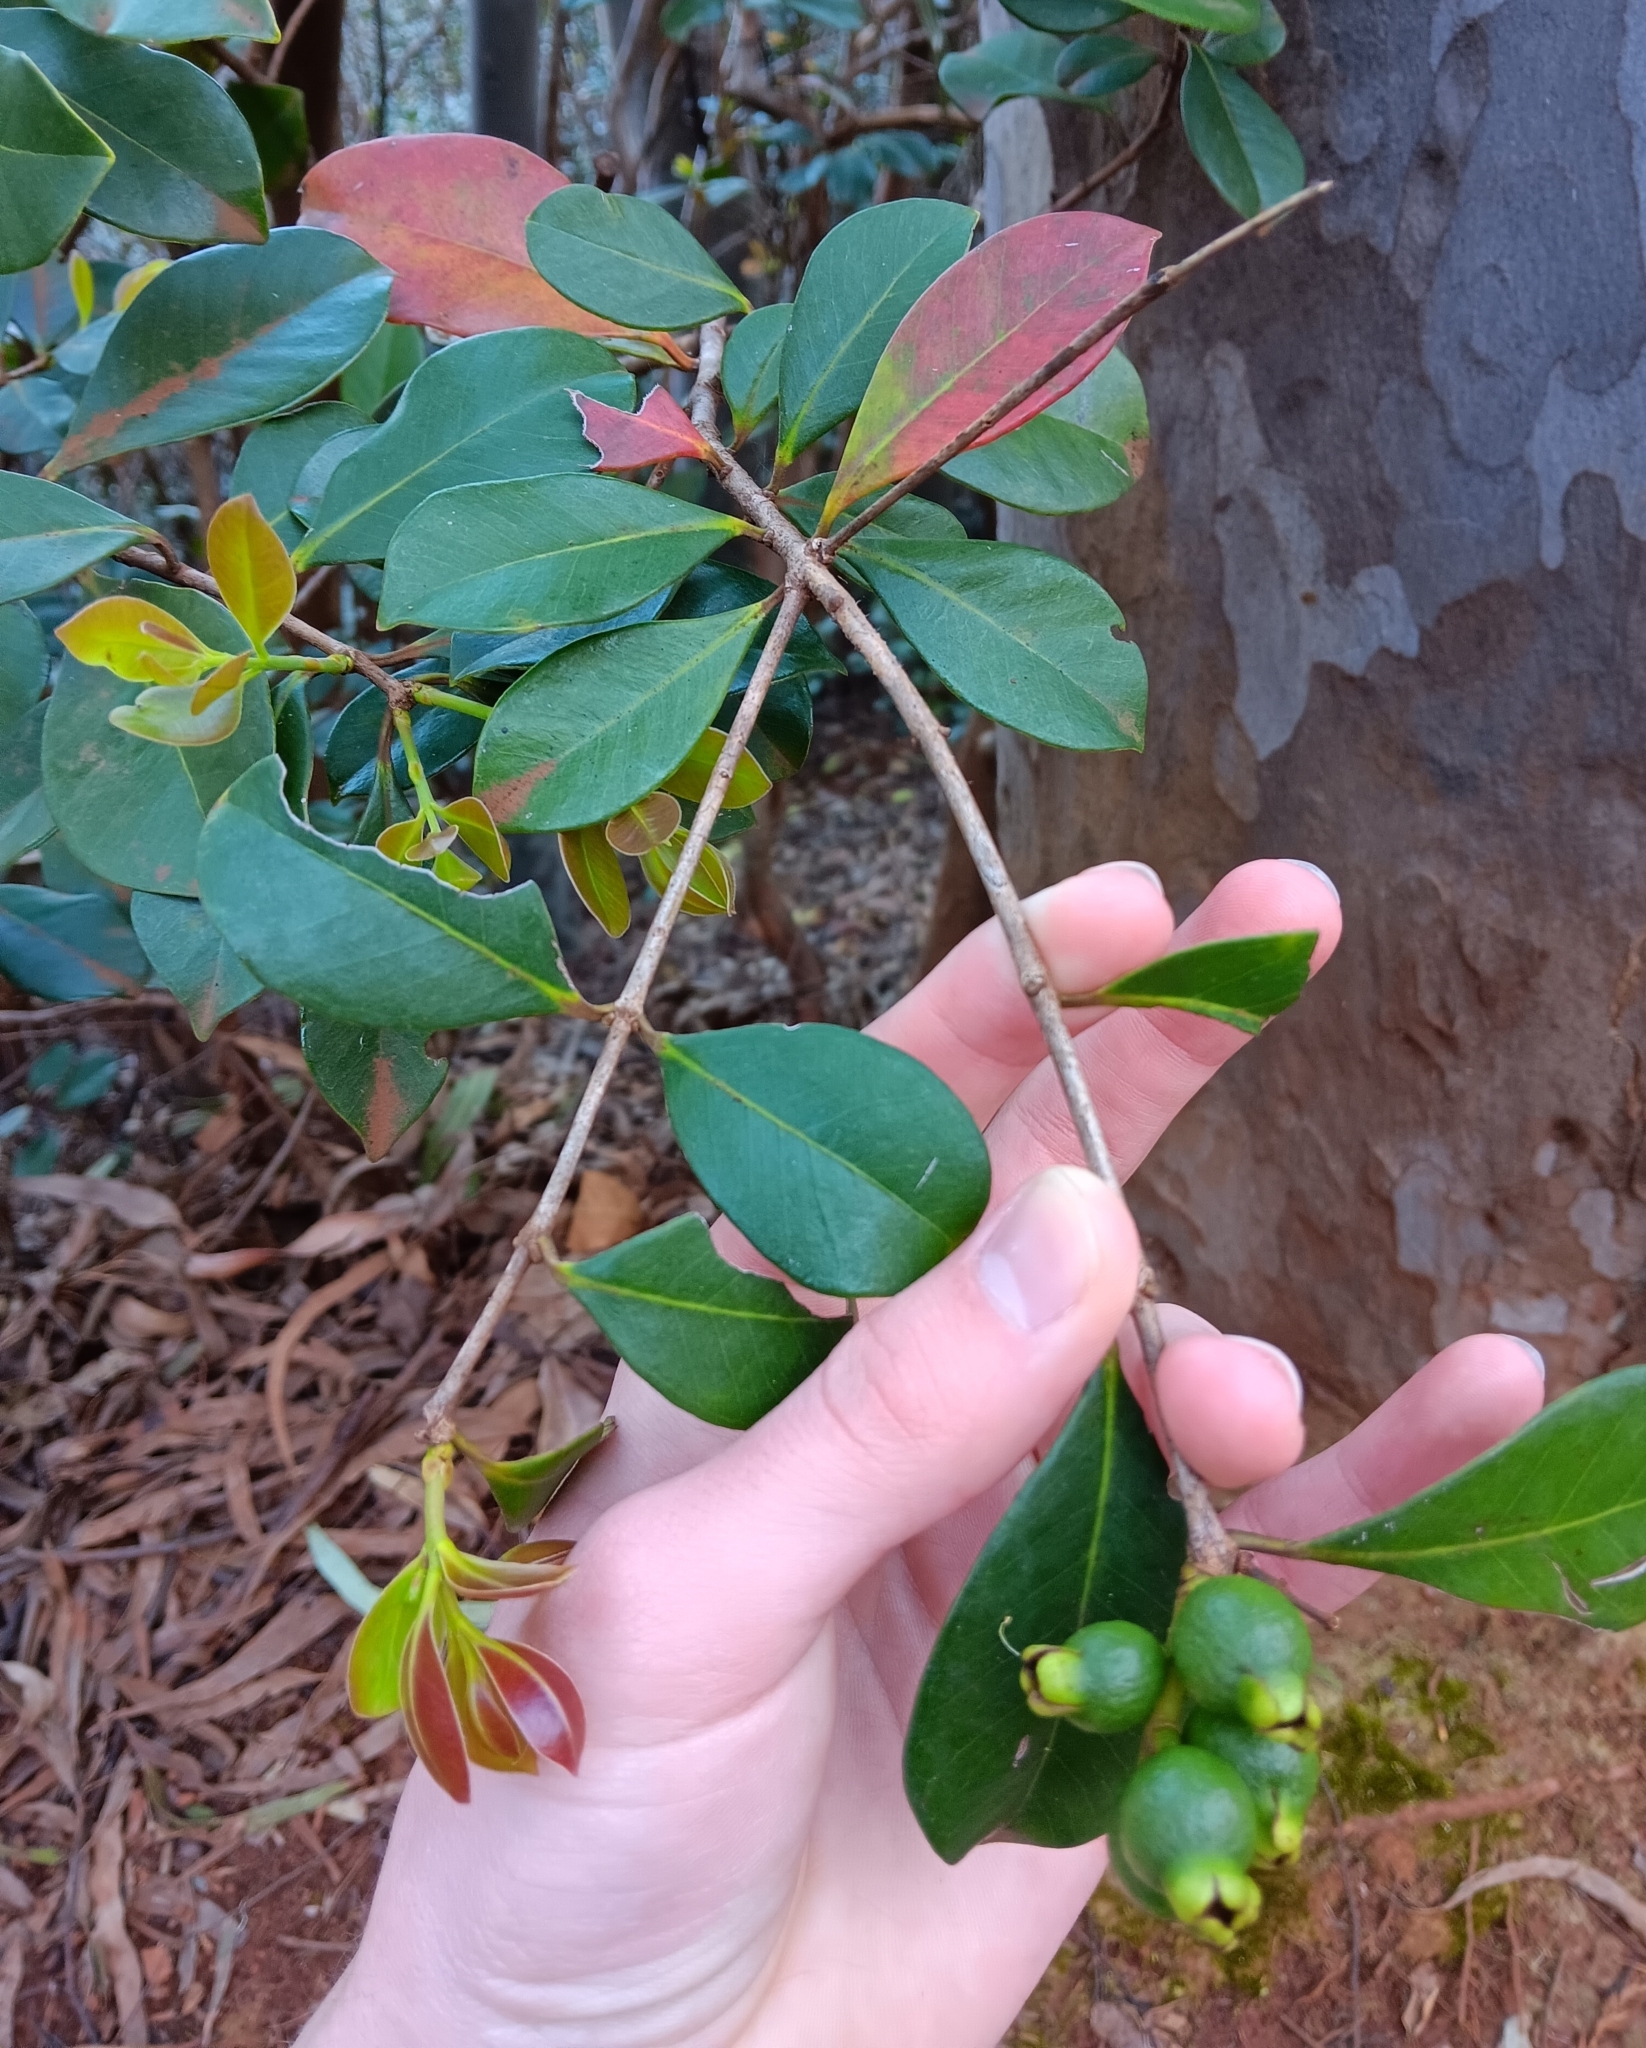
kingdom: Plantae
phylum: Tracheophyta
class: Magnoliopsida
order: Myrtales
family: Myrtaceae
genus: Psidium
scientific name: Psidium cattleianum
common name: Strawberry guava
